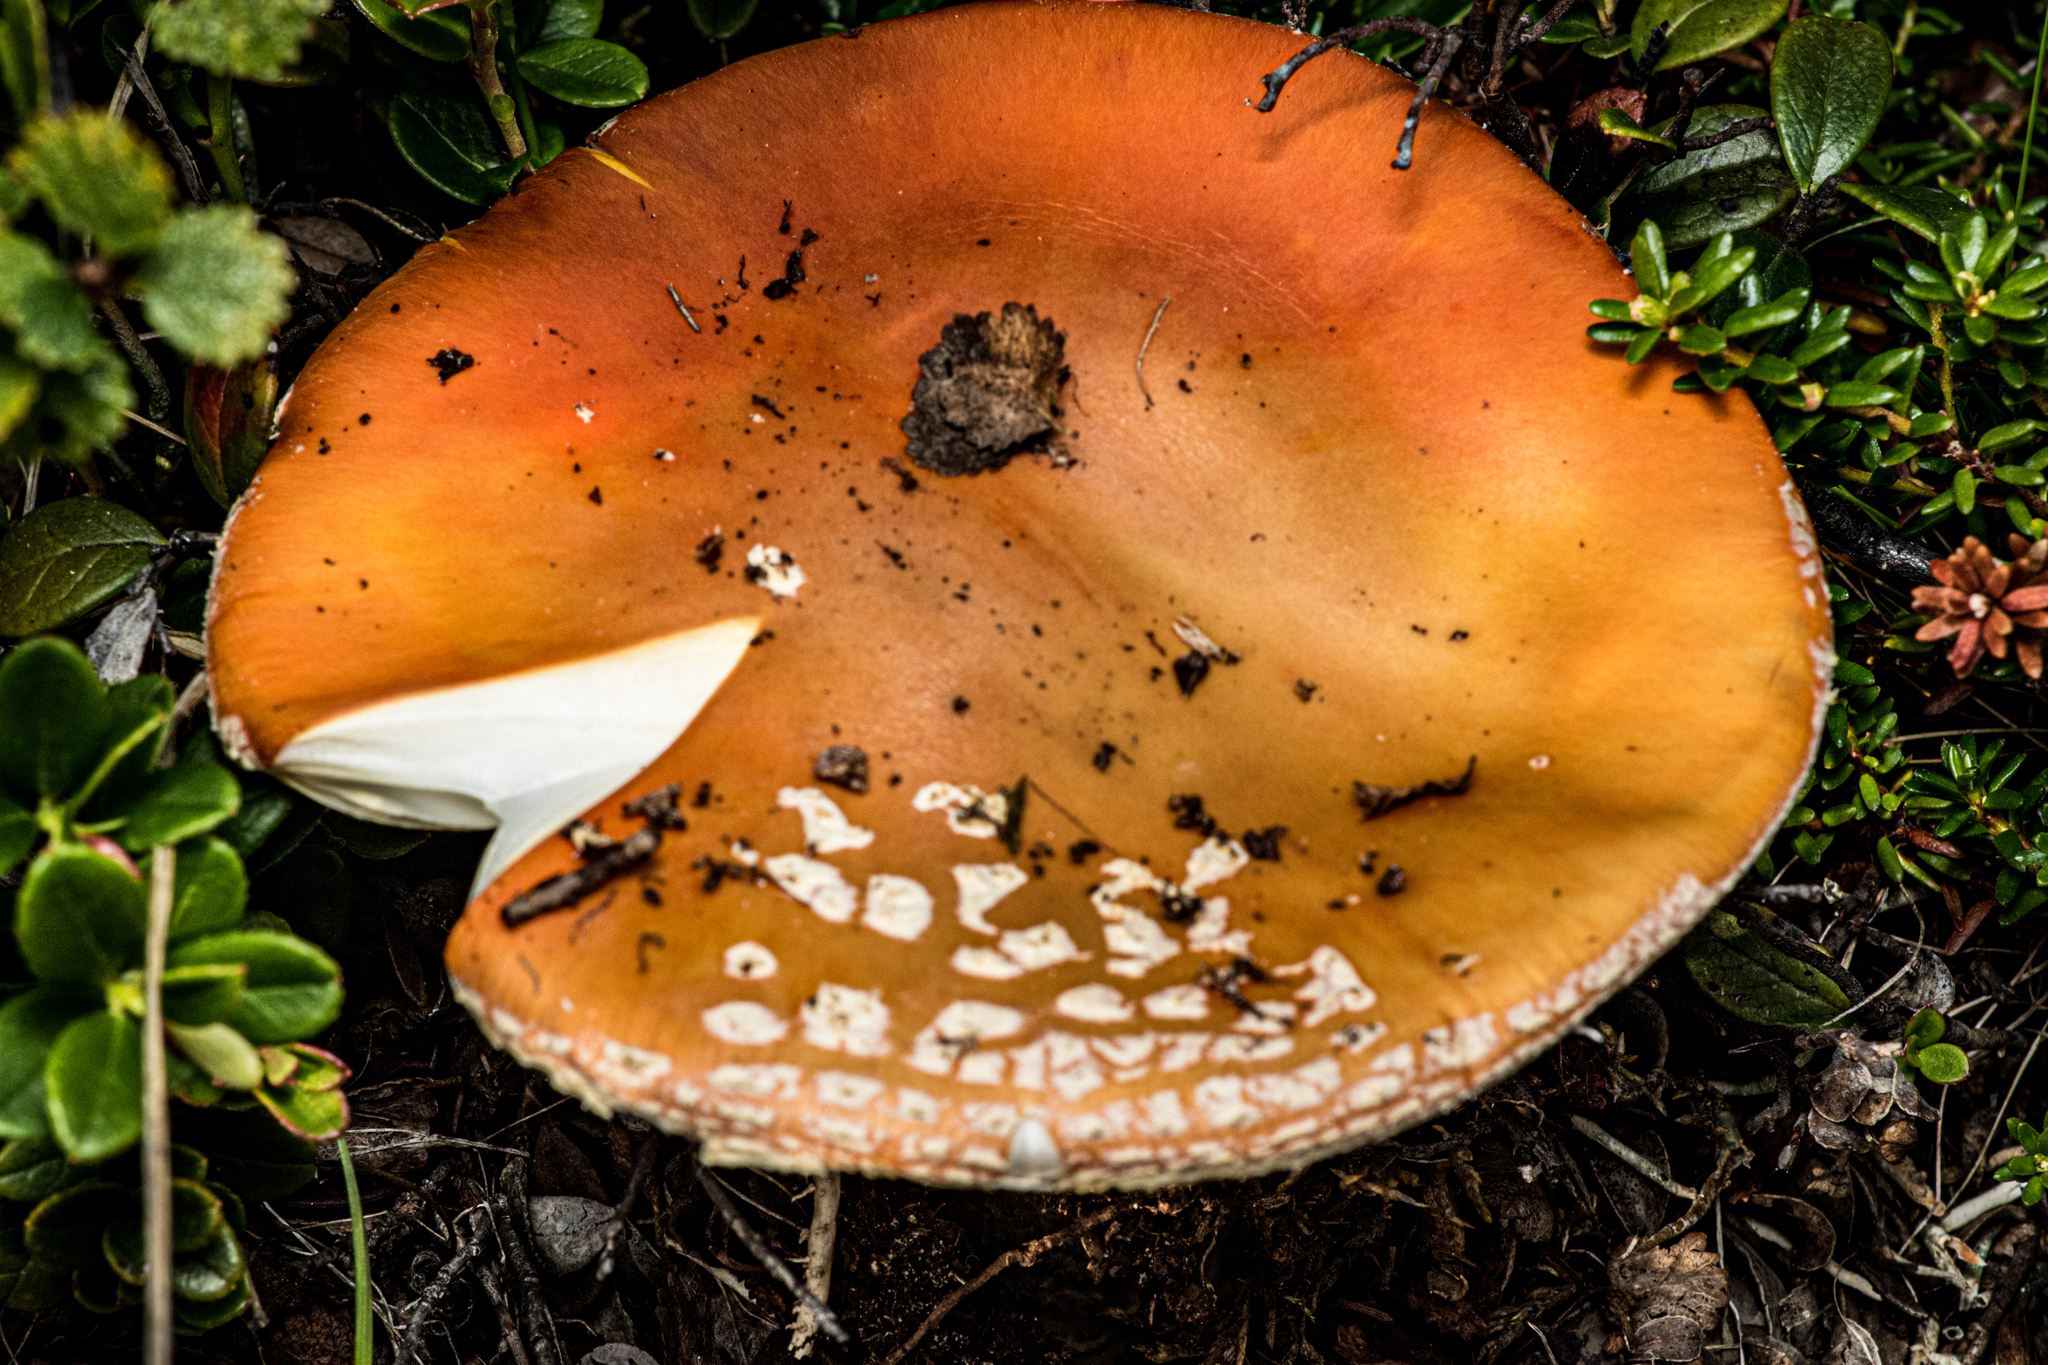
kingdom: Fungi
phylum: Basidiomycota
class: Agaricomycetes
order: Agaricales
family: Amanitaceae
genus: Amanita
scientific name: Amanita muscaria
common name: Fly agaric
